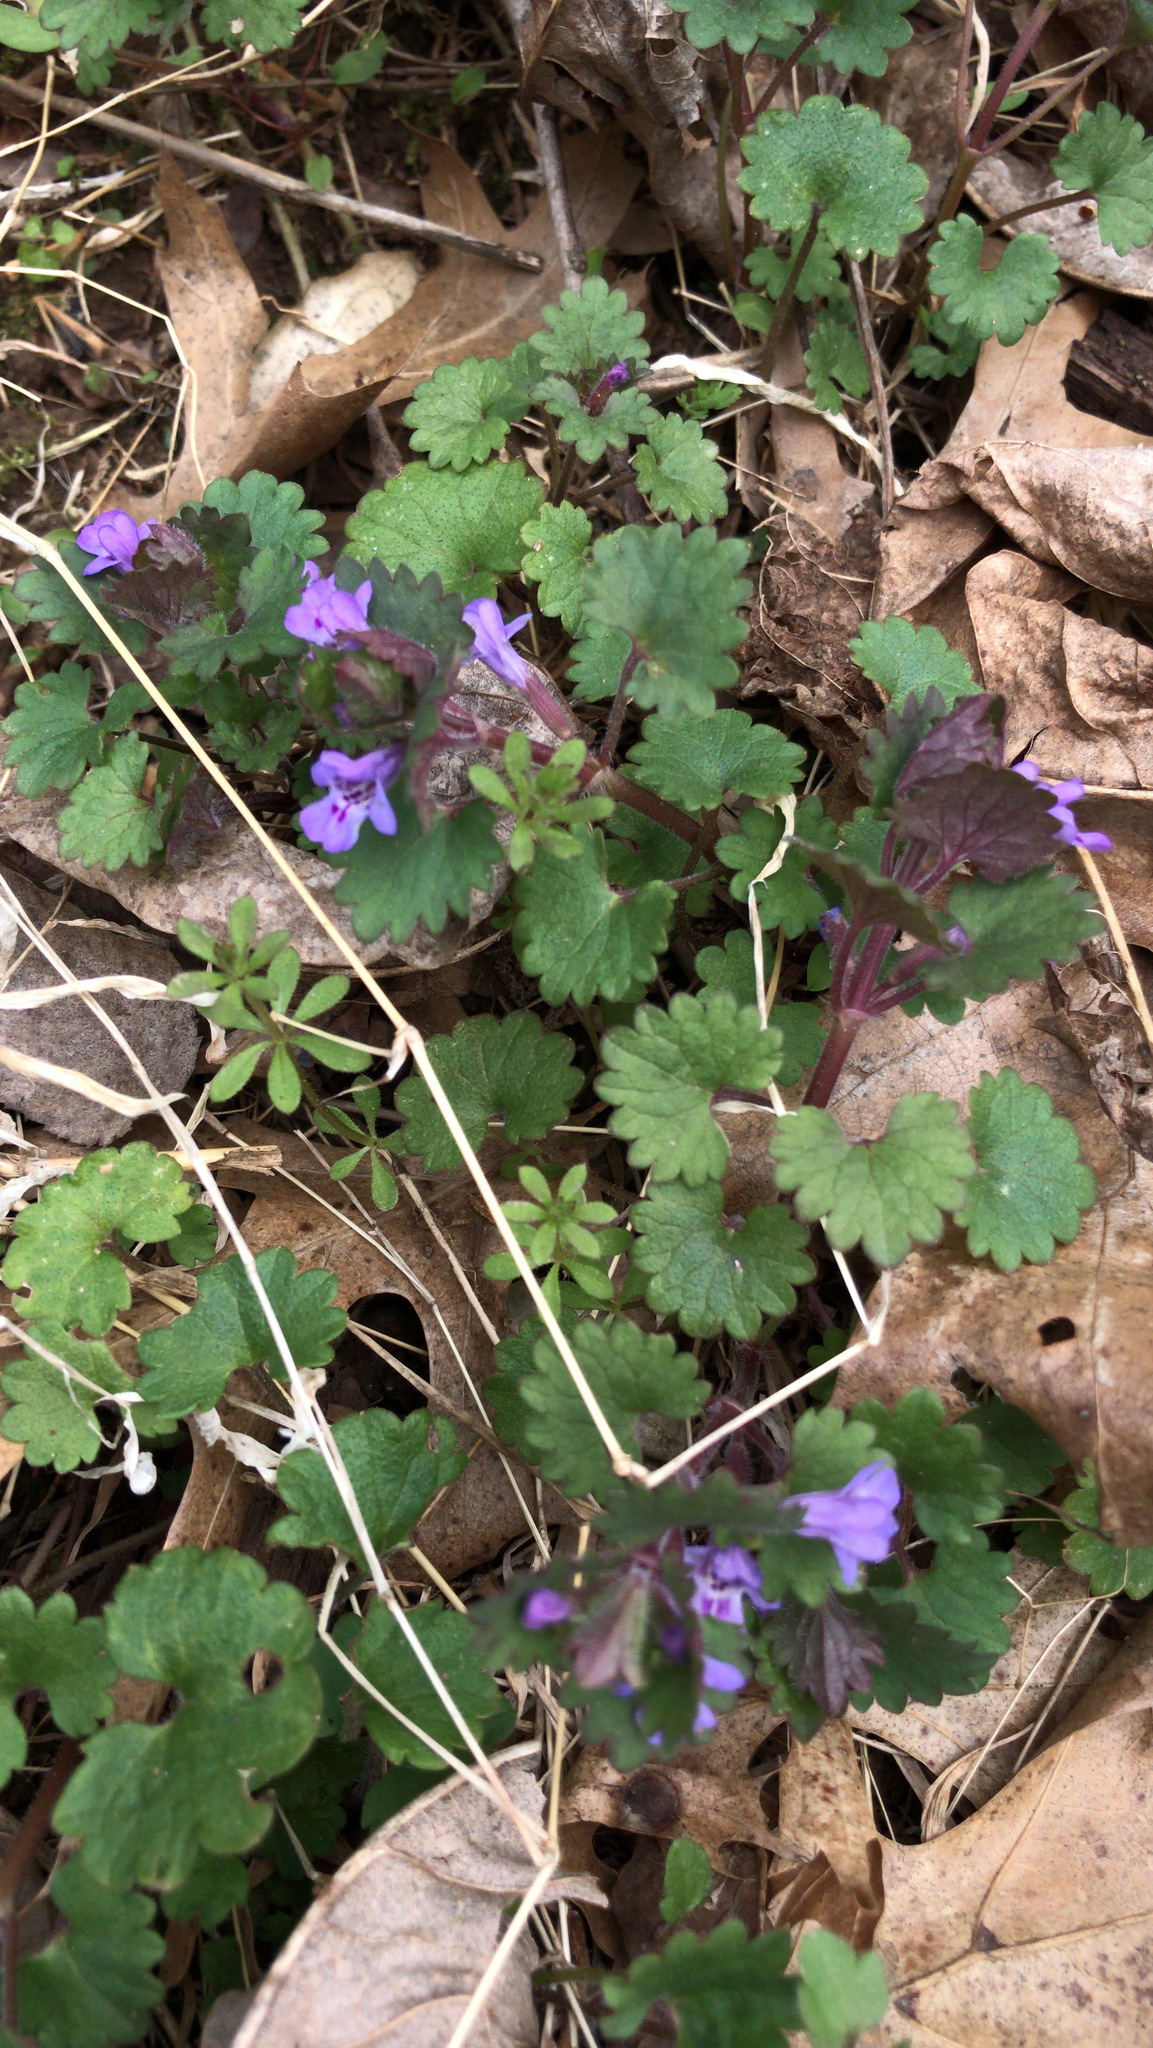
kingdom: Plantae
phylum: Tracheophyta
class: Magnoliopsida
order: Lamiales
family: Lamiaceae
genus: Glechoma
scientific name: Glechoma hederacea
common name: Ground ivy
